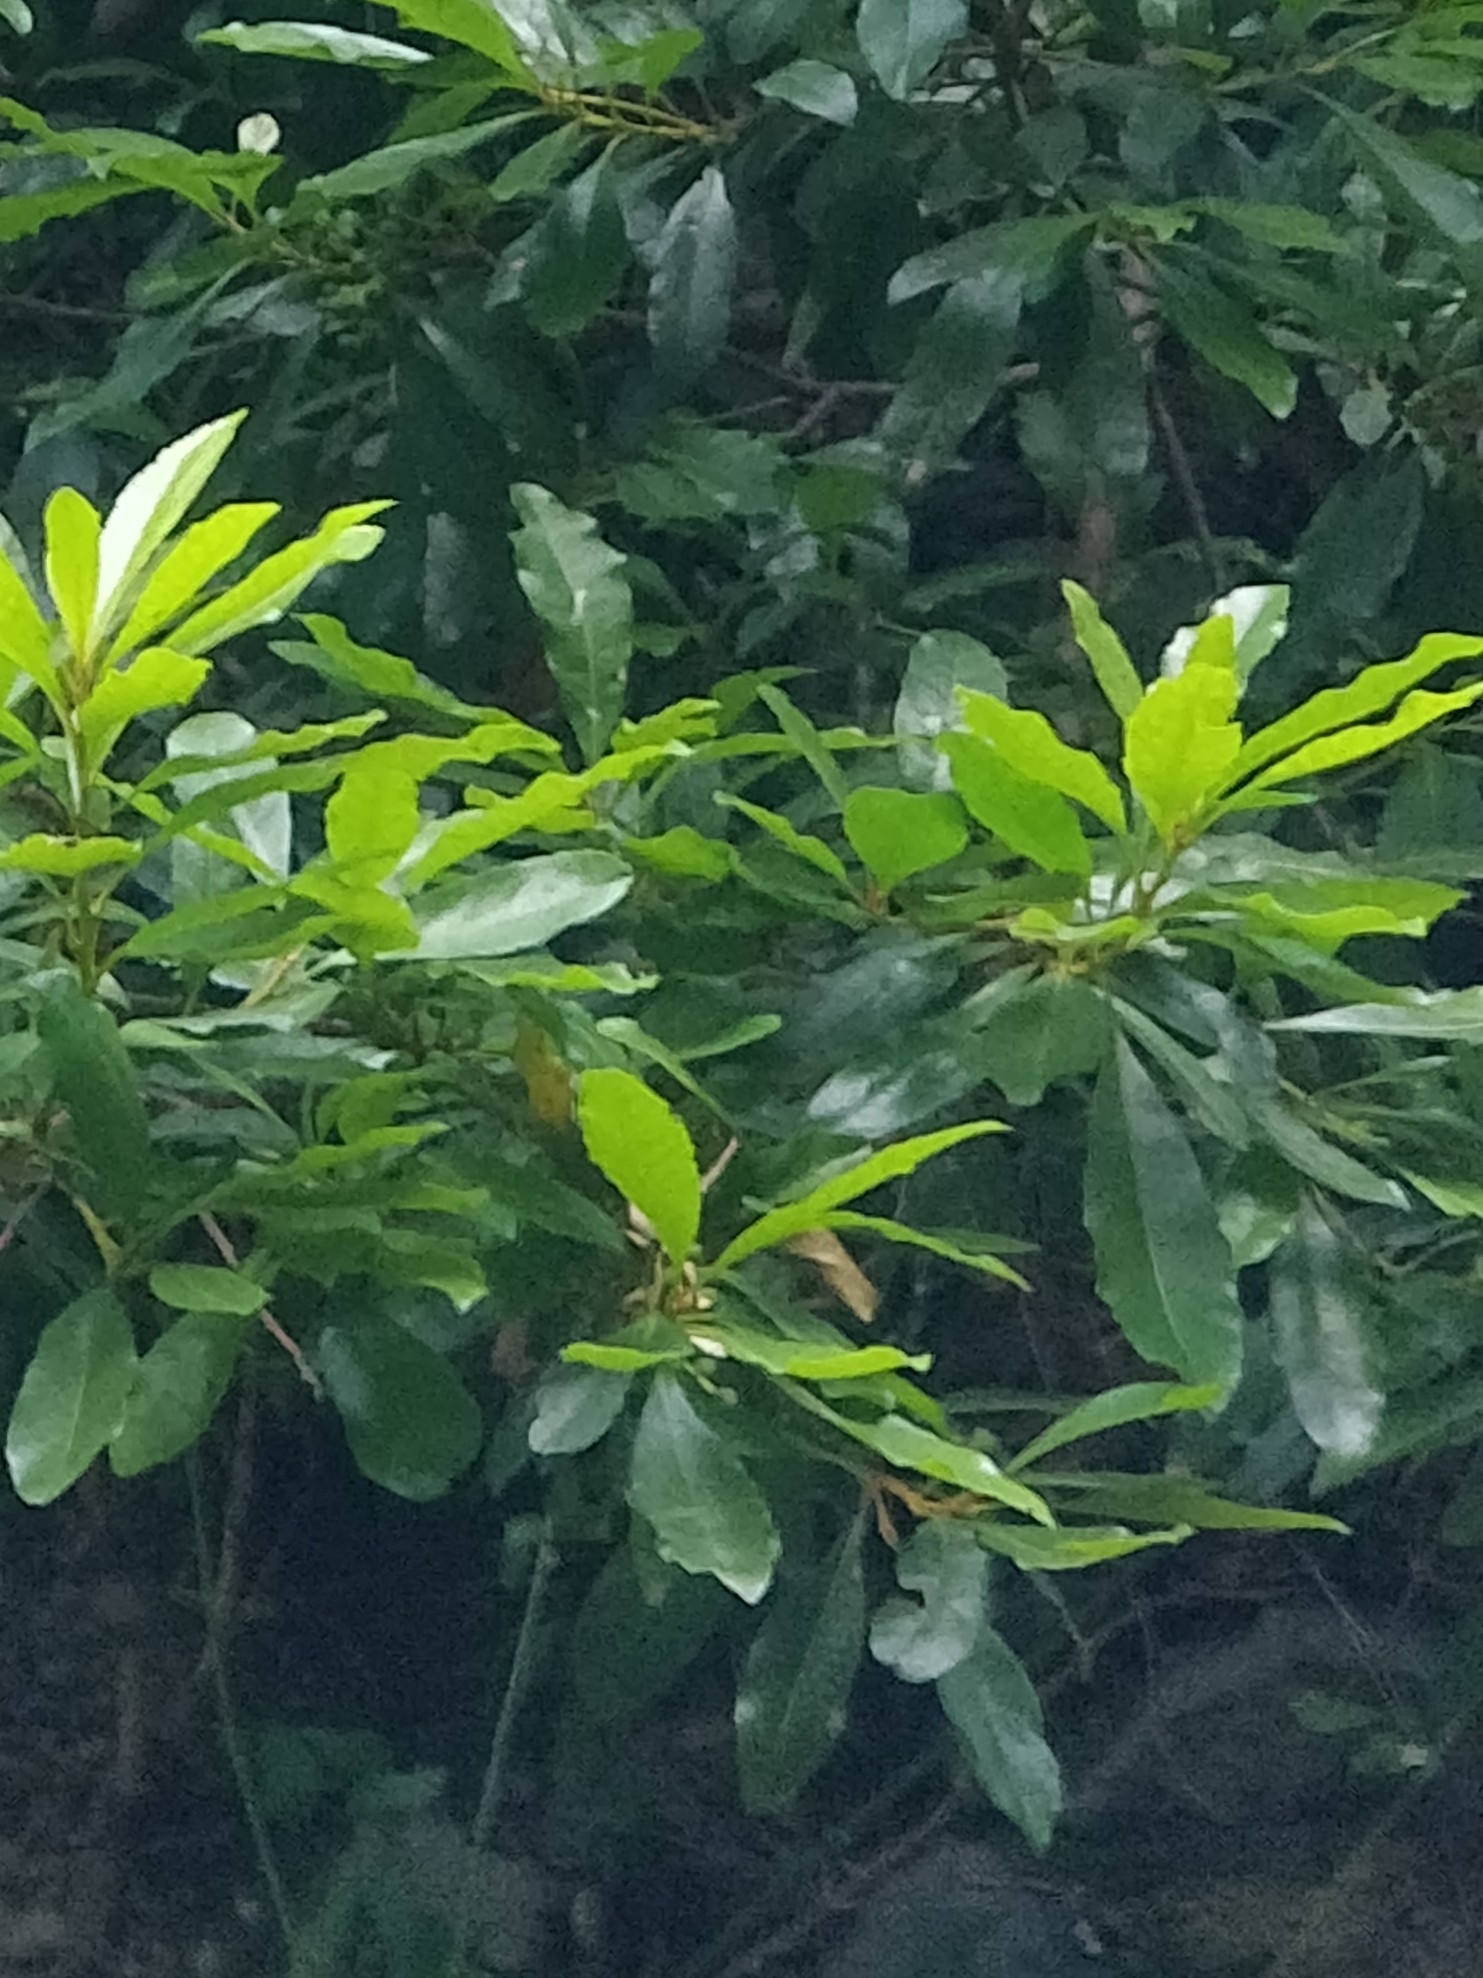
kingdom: Plantae
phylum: Tracheophyta
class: Magnoliopsida
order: Fagales
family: Myricaceae
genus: Morella
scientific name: Morella faya
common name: Firetree
